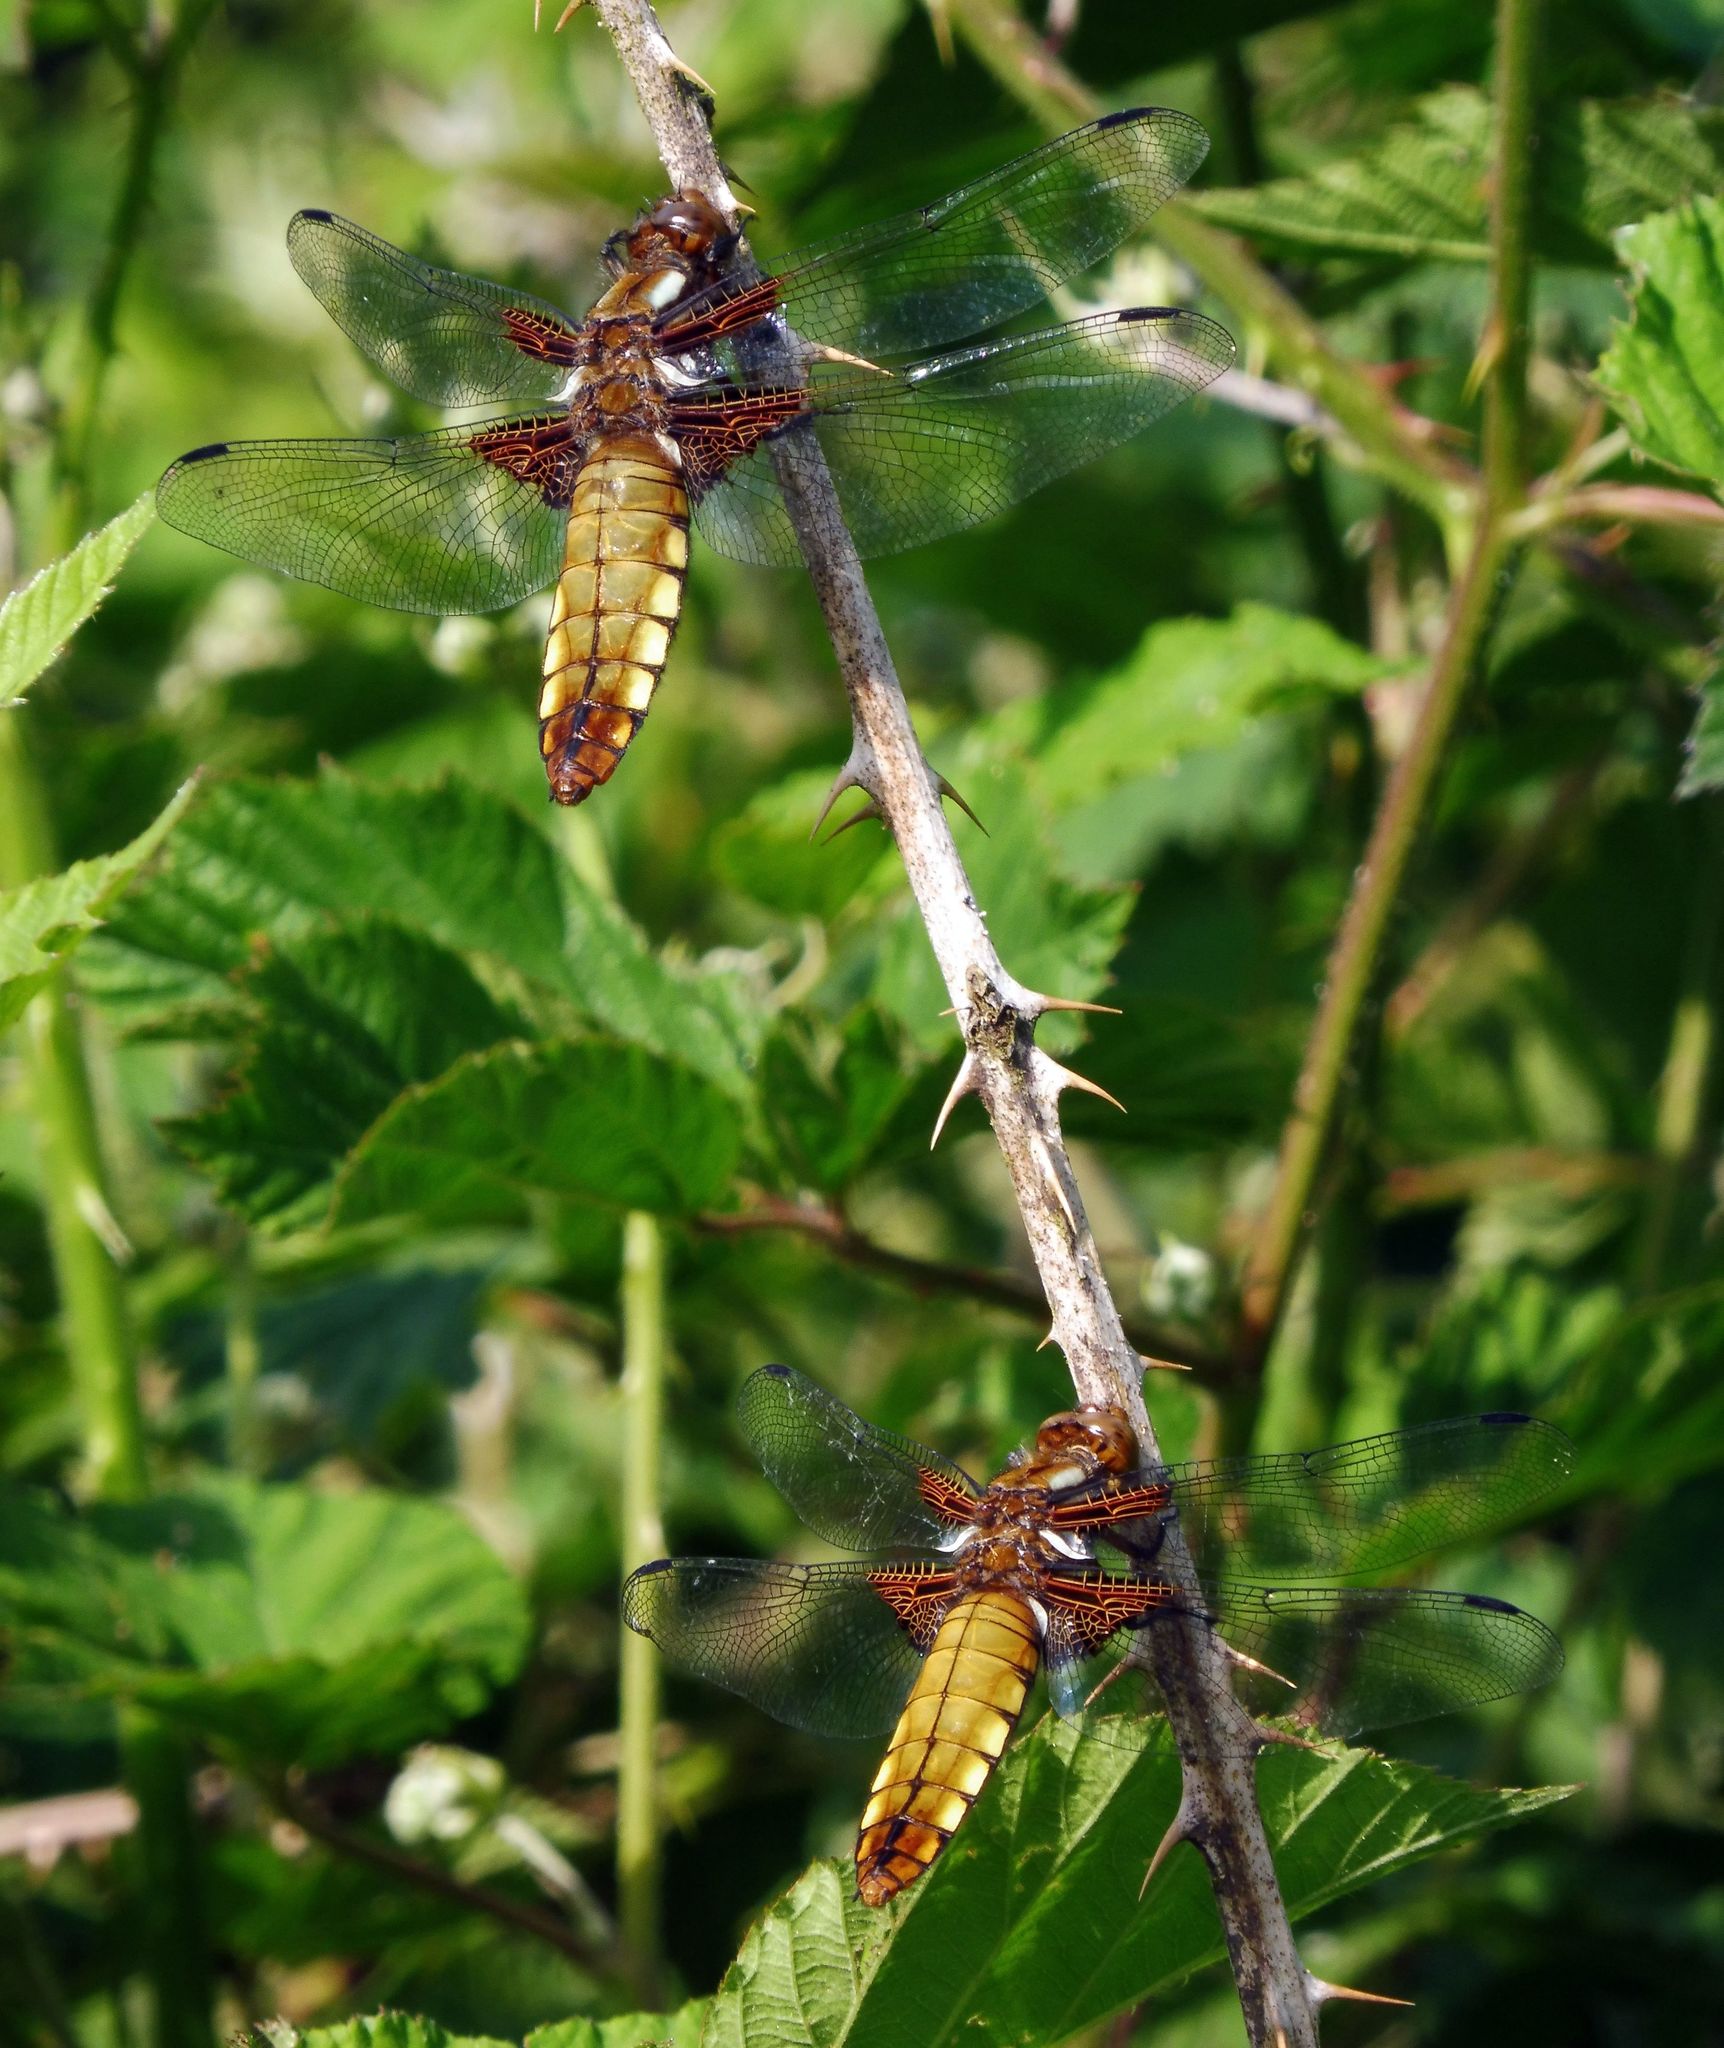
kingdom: Animalia
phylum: Arthropoda
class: Insecta
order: Odonata
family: Libellulidae
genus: Libellula
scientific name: Libellula depressa
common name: Broad-bodied chaser
